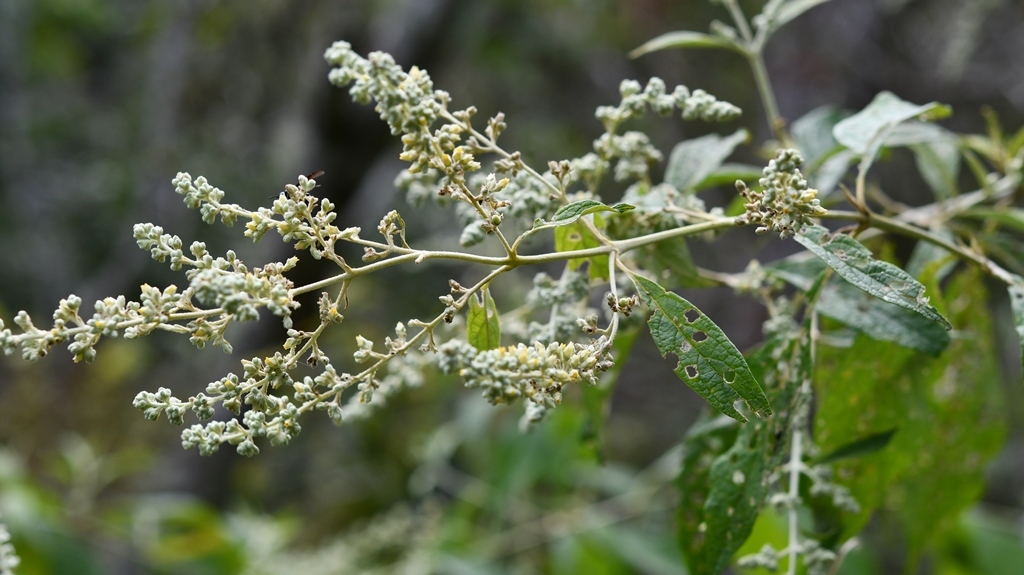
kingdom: Plantae
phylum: Tracheophyta
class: Magnoliopsida
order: Lamiales
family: Scrophulariaceae
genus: Buddleja
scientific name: Buddleja americana
